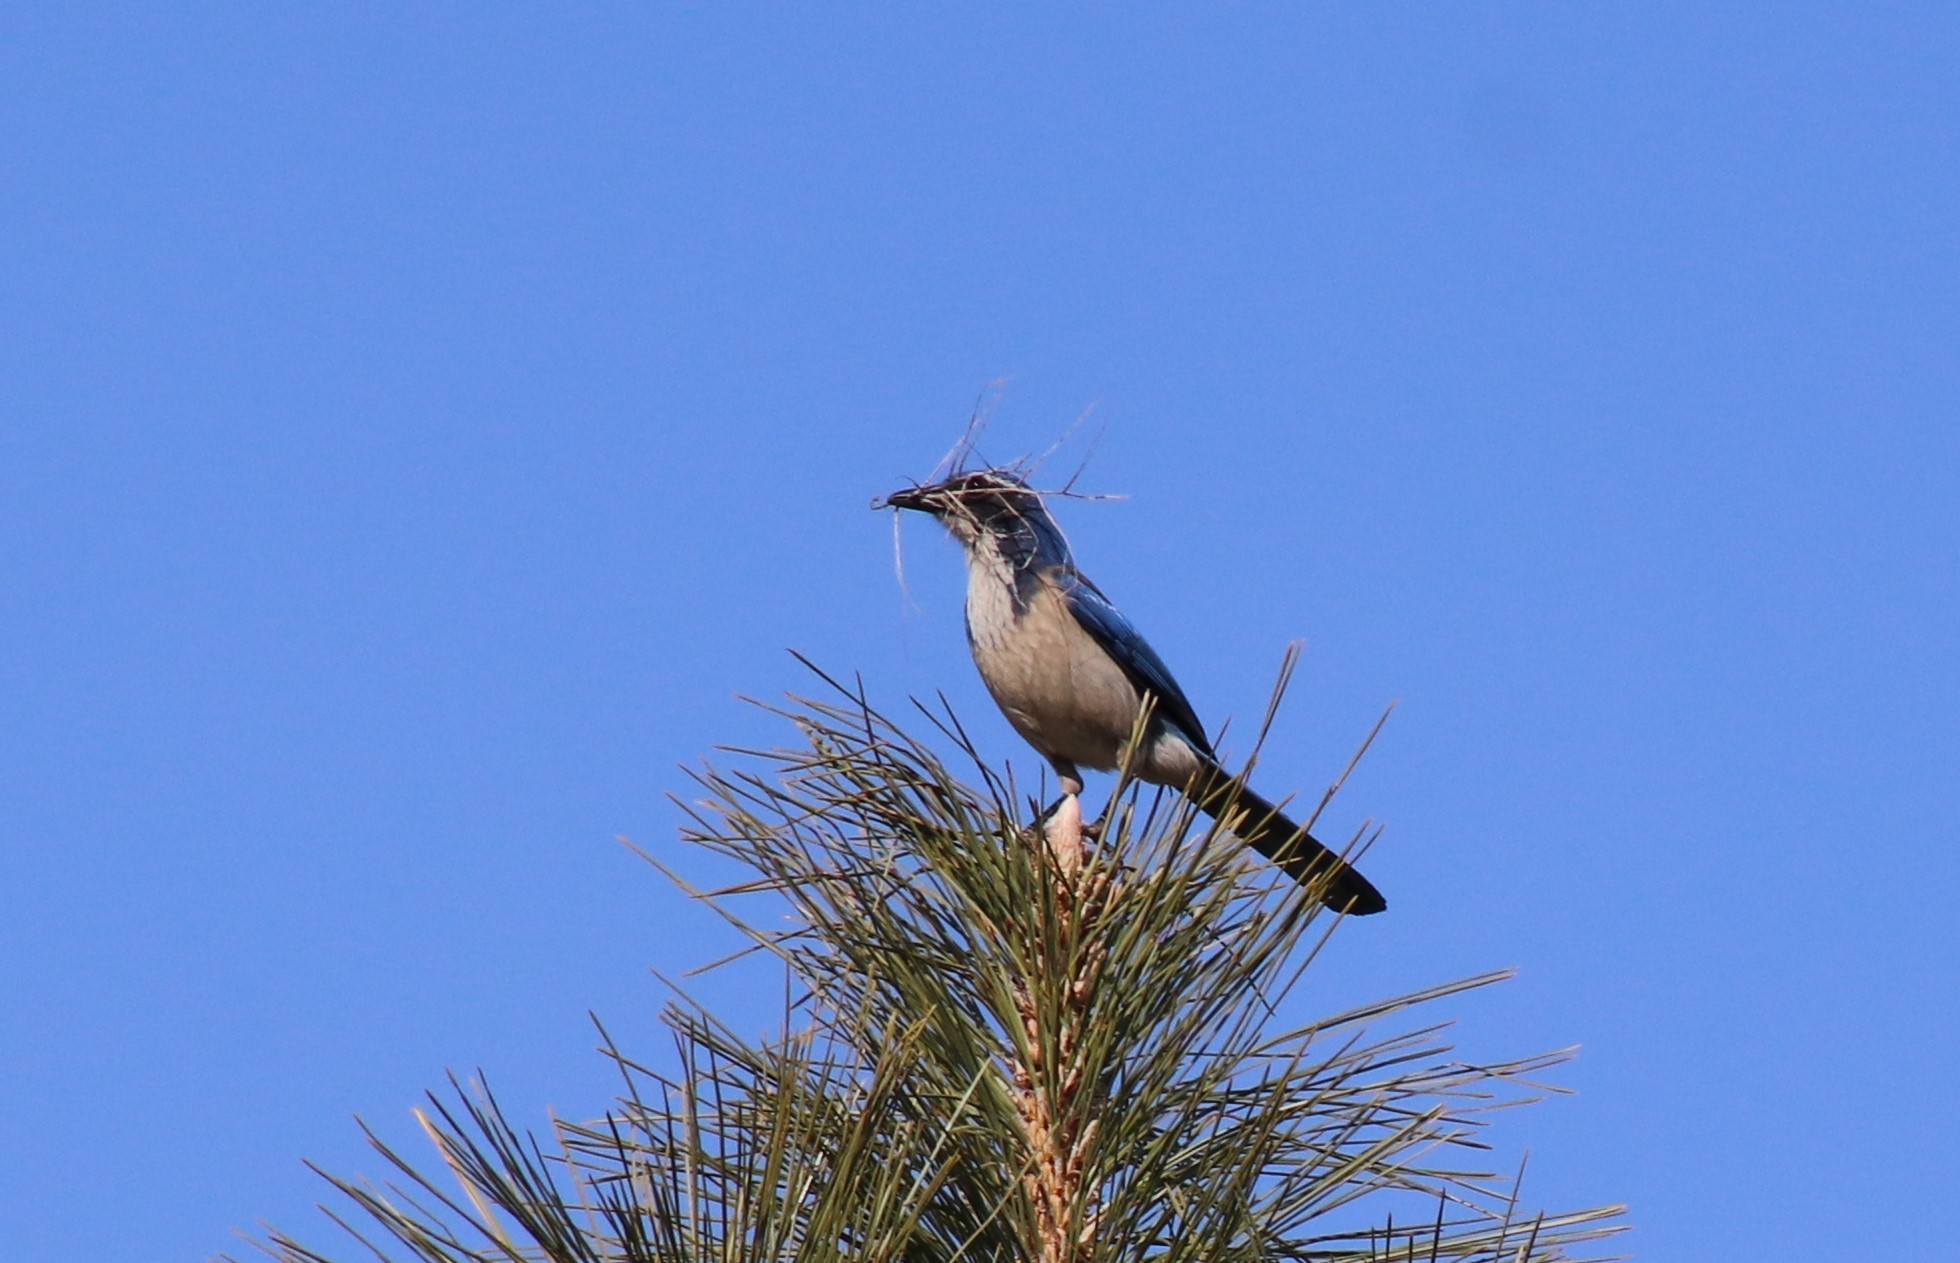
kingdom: Animalia
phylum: Chordata
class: Aves
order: Passeriformes
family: Corvidae
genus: Aphelocoma
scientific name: Aphelocoma californica
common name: California scrub-jay
